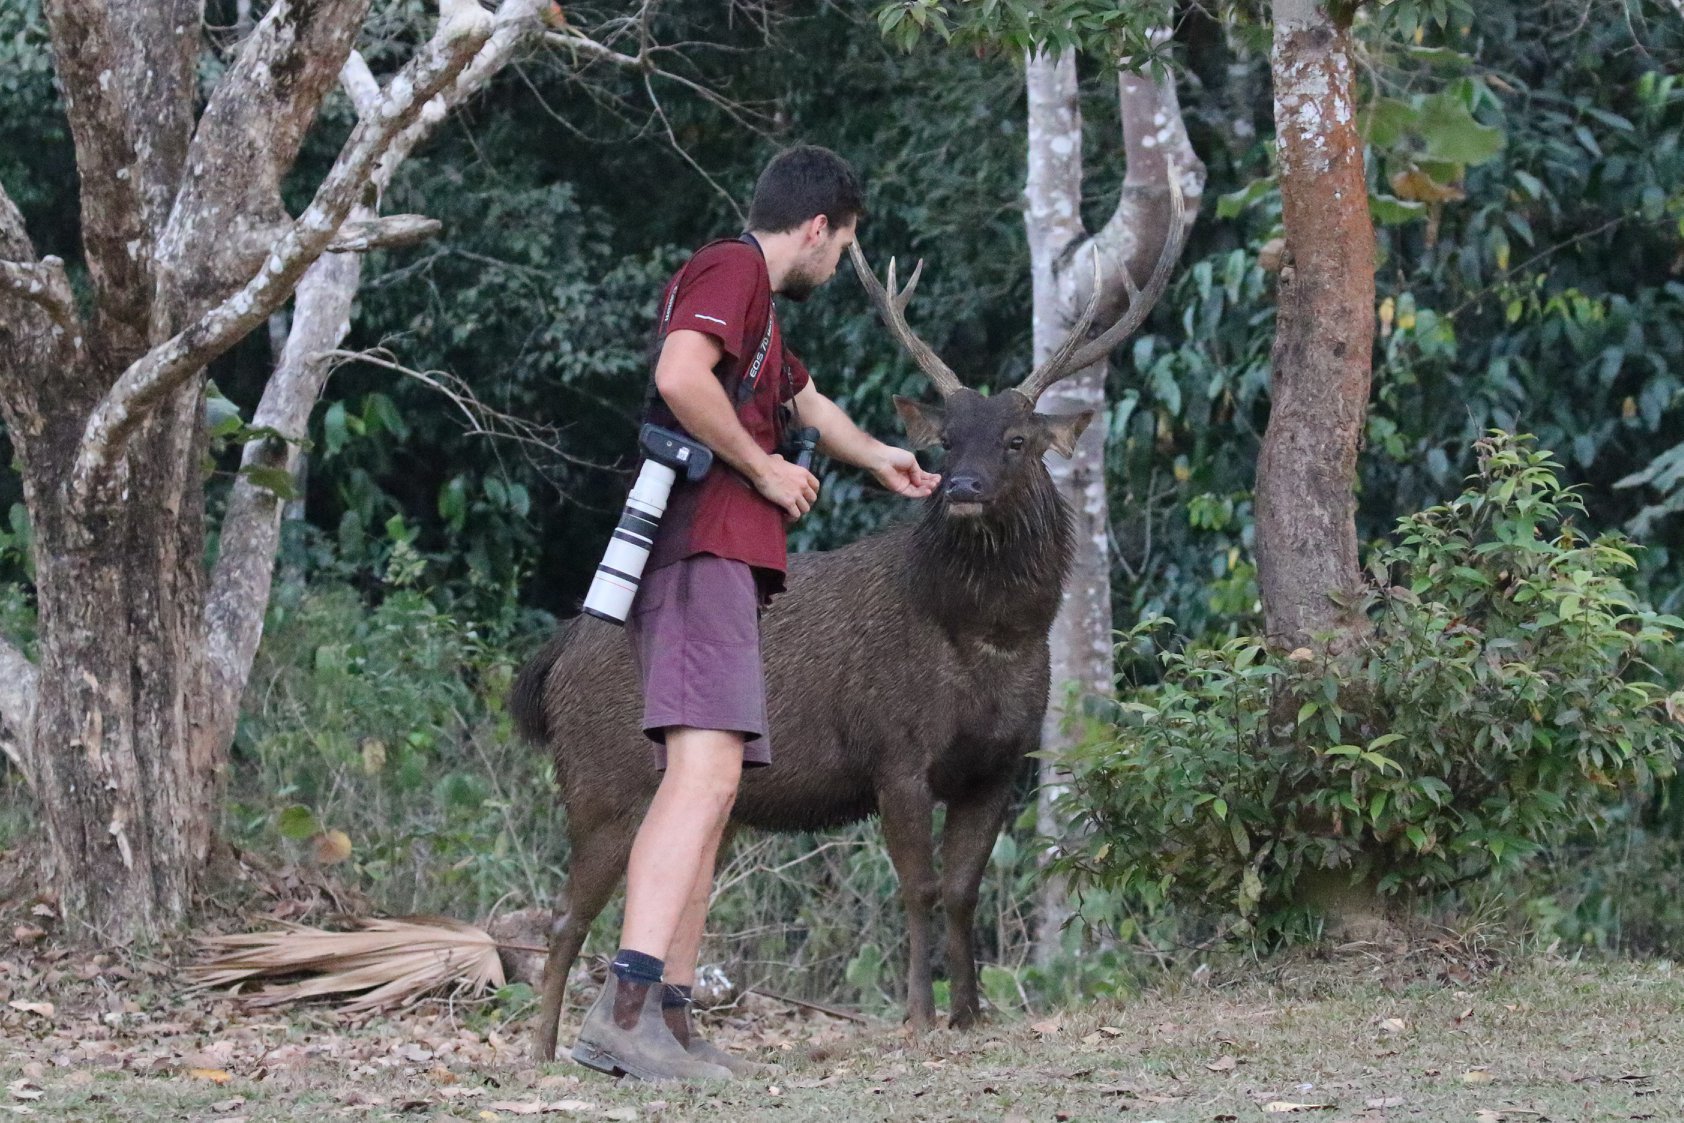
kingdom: Animalia
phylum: Chordata
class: Mammalia
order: Artiodactyla
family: Cervidae
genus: Rusa
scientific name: Rusa unicolor
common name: Sambar
